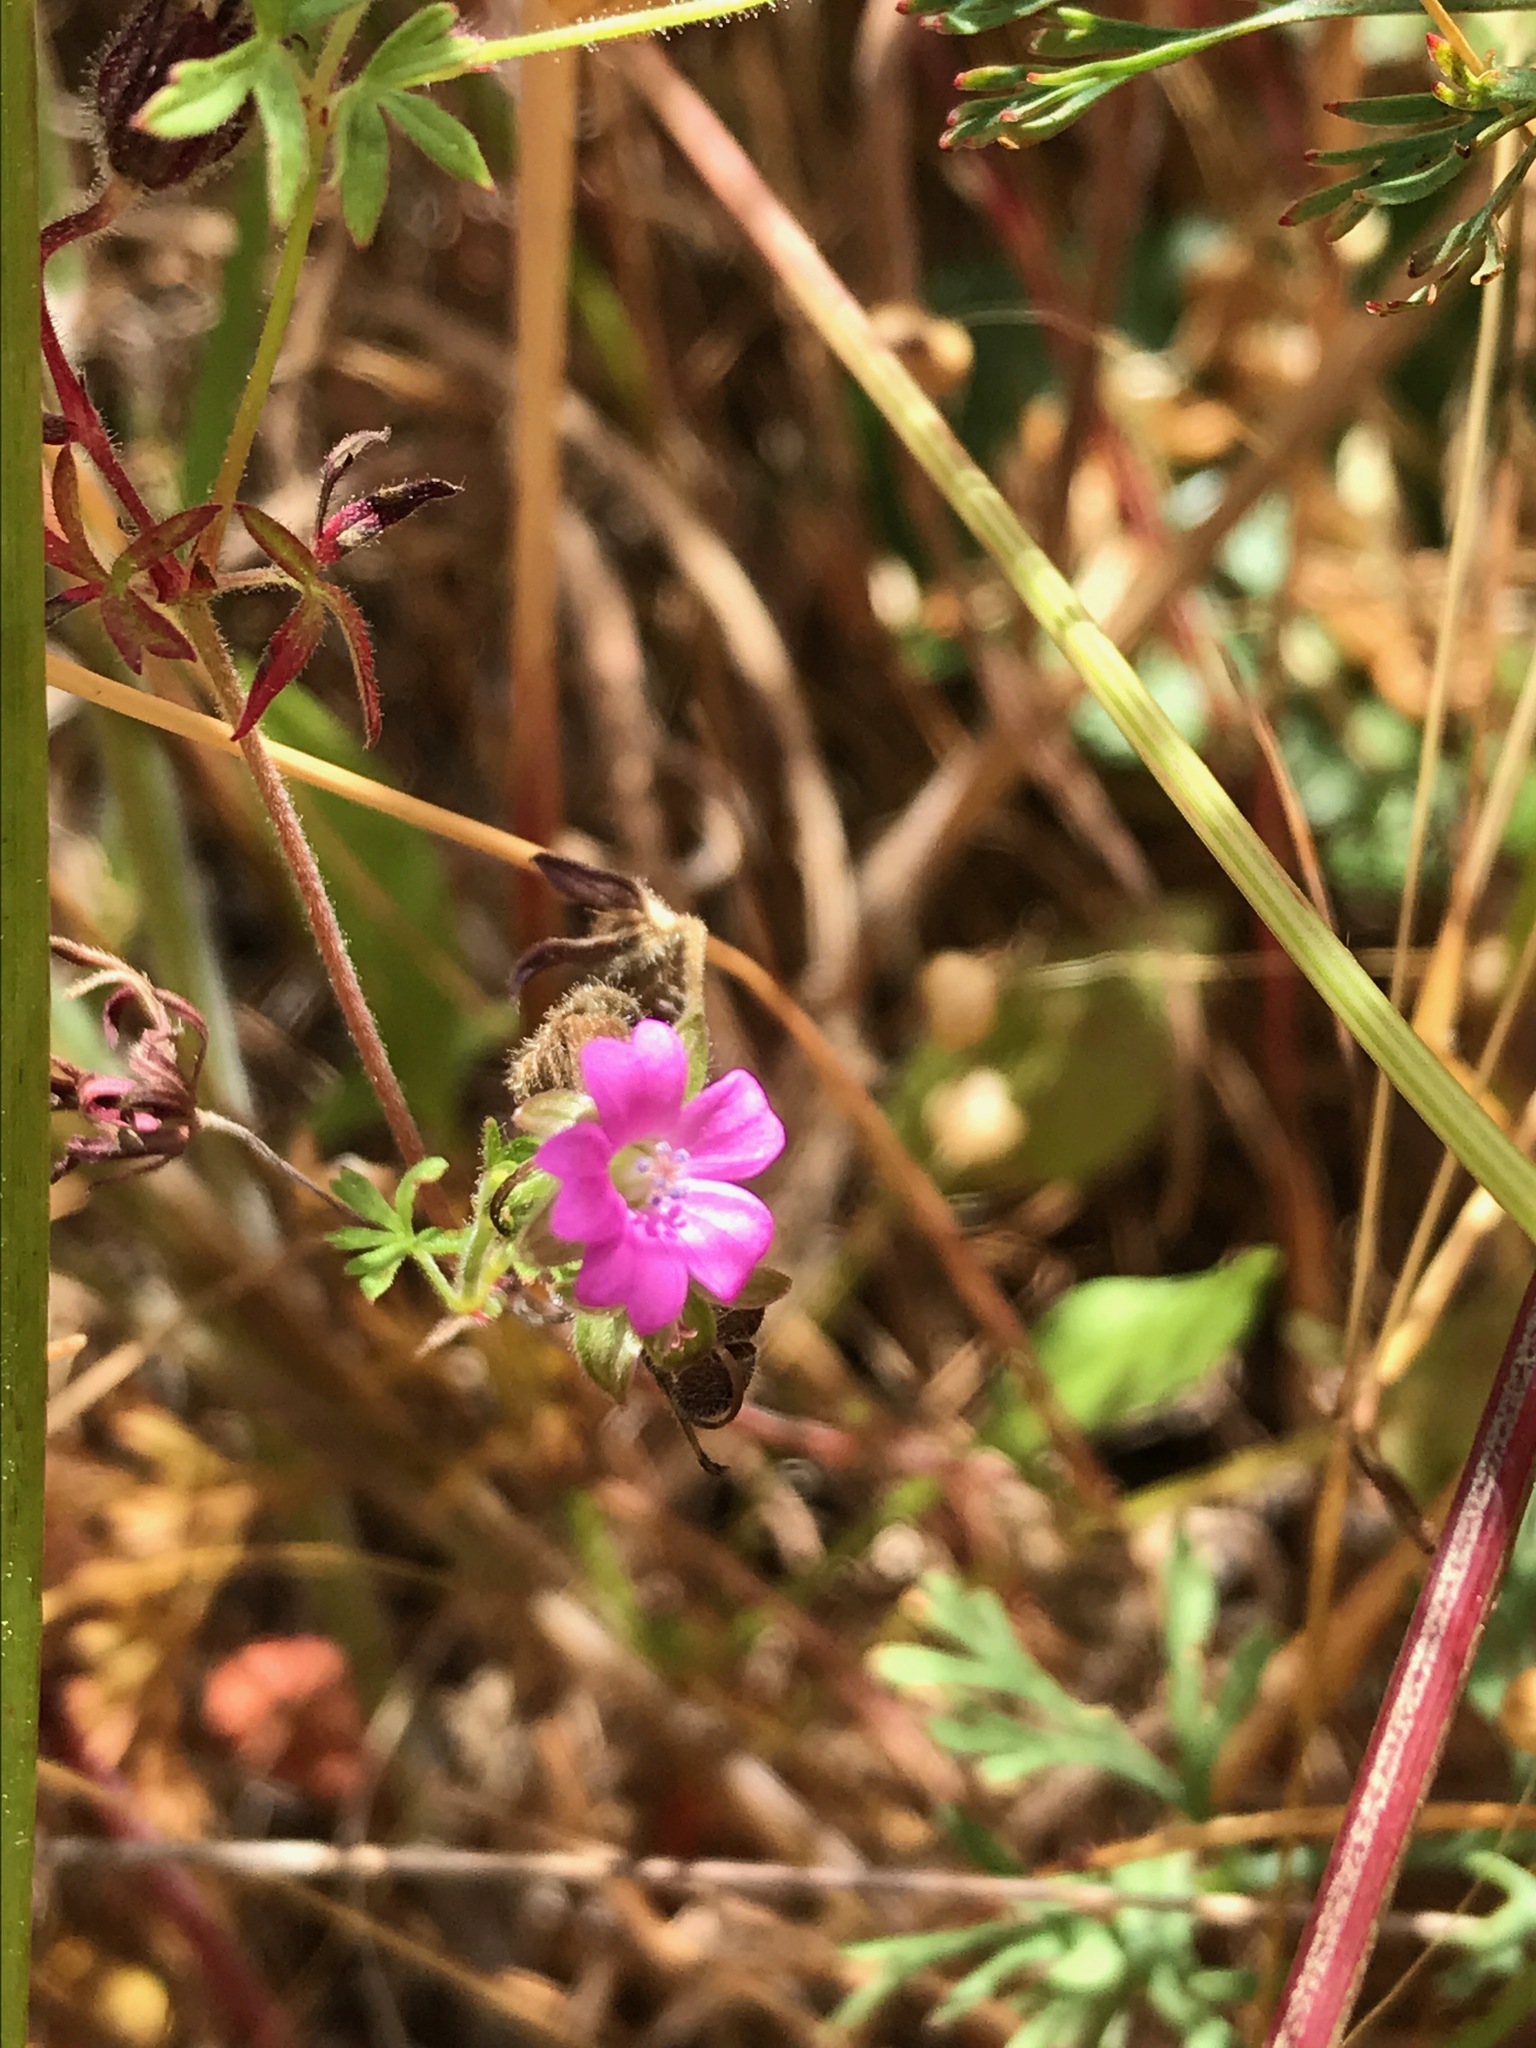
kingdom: Plantae
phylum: Tracheophyta
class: Magnoliopsida
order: Geraniales
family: Geraniaceae
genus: Geranium
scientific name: Geranium dissectum
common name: Cut-leaved crane's-bill
